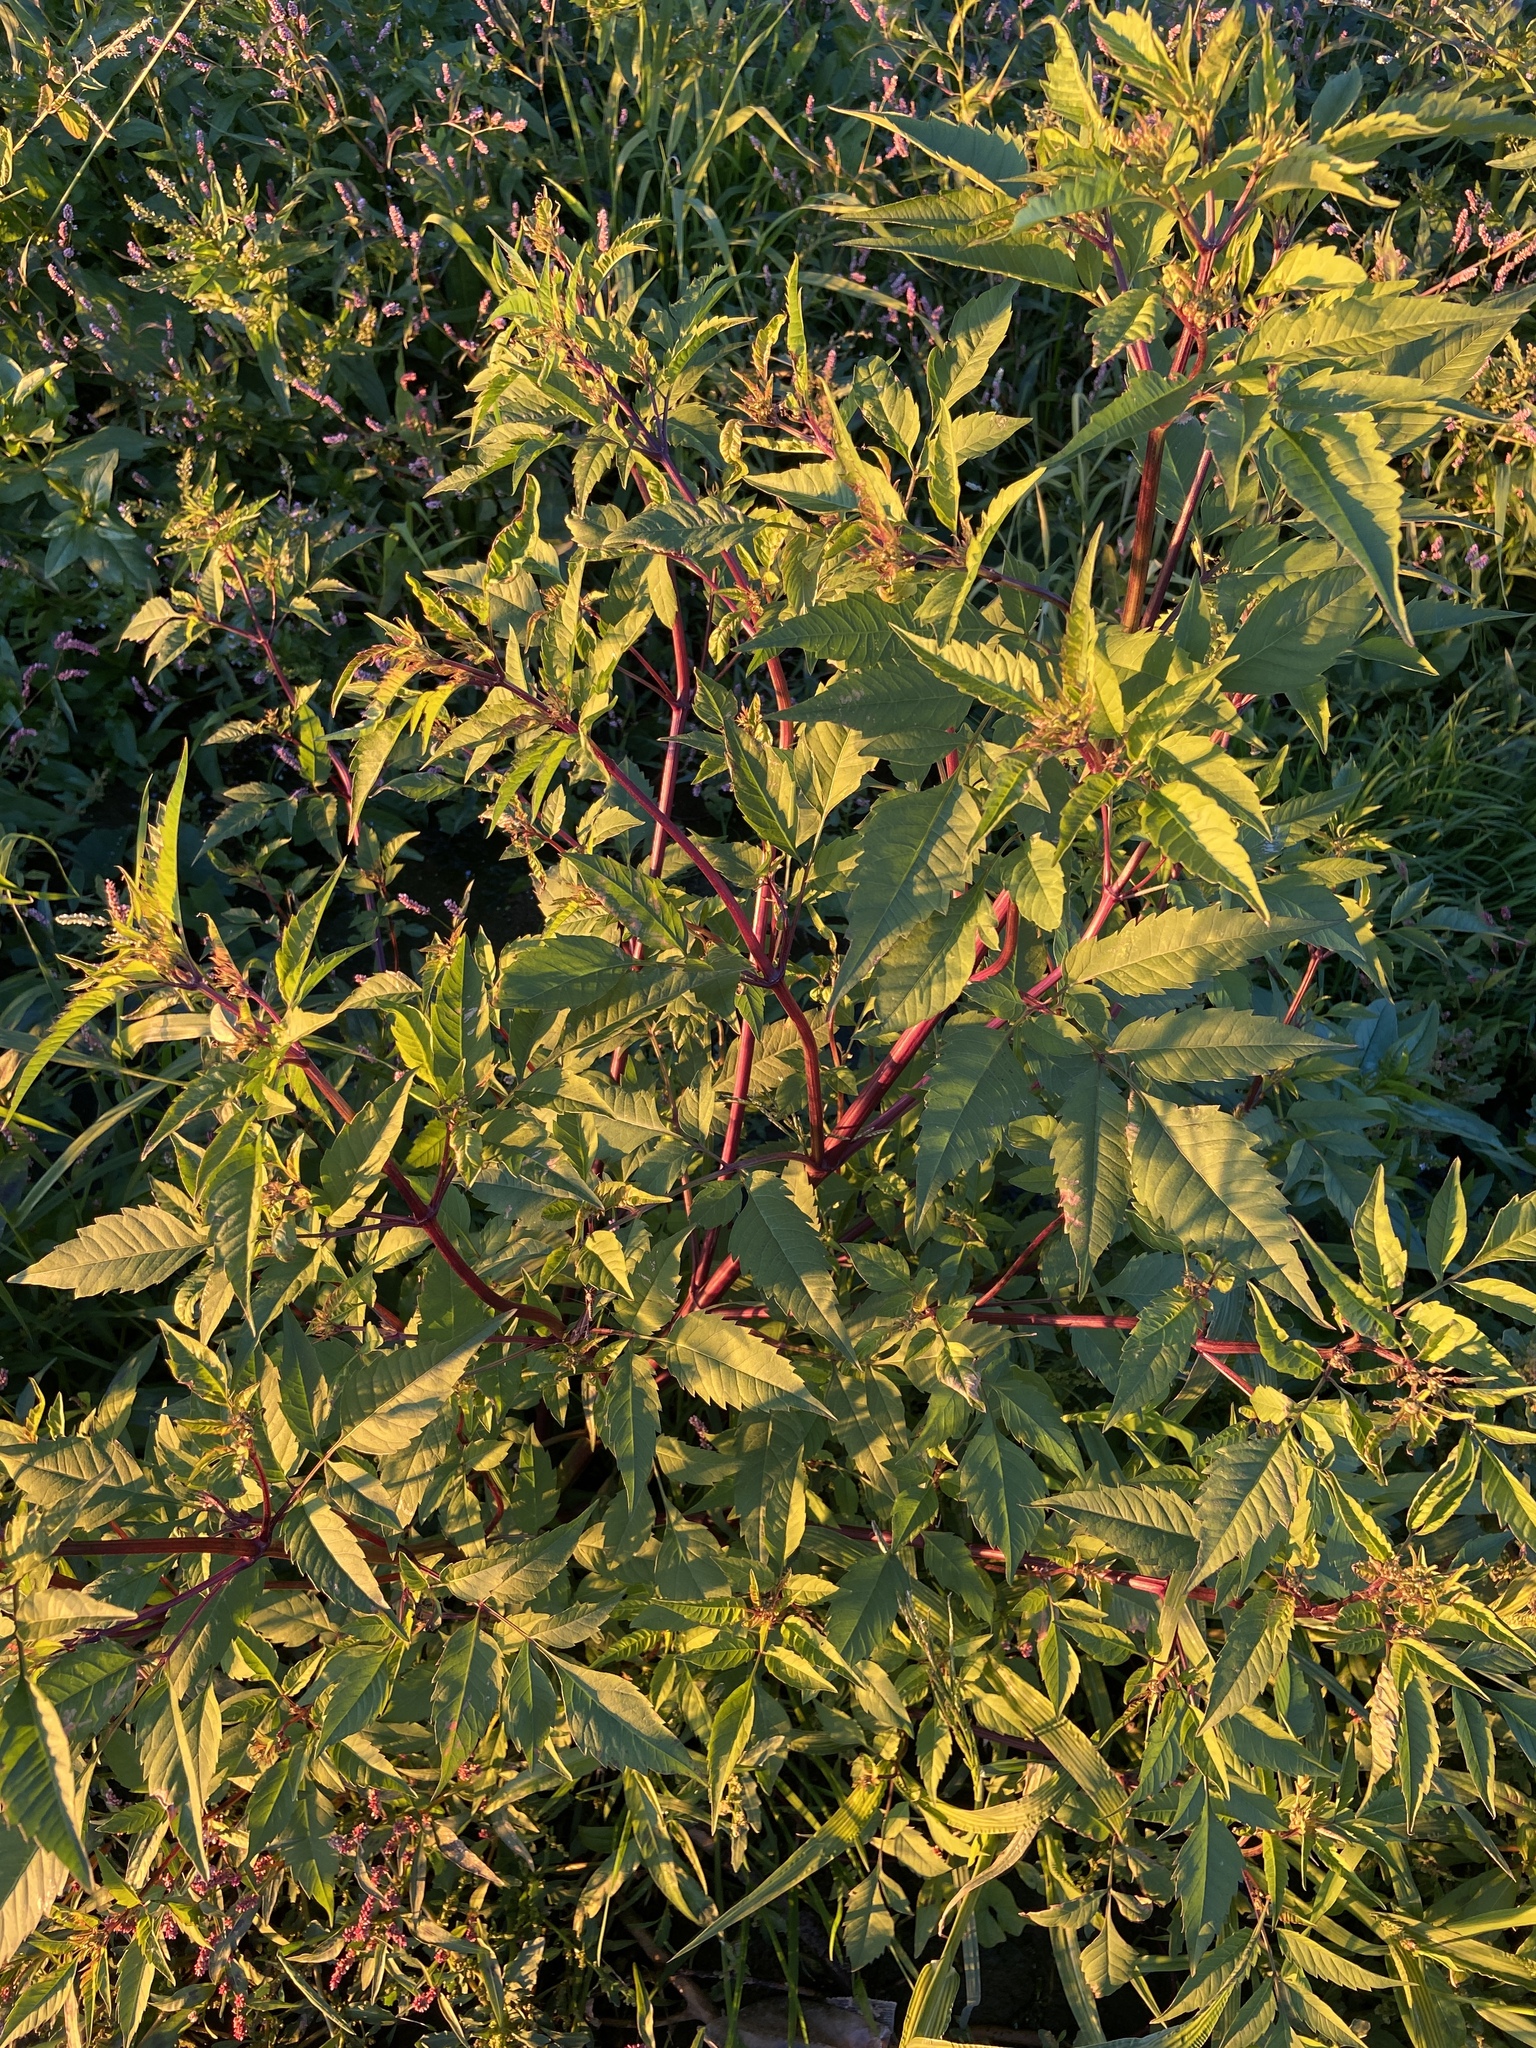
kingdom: Plantae
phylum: Tracheophyta
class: Magnoliopsida
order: Asterales
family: Asteraceae
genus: Bidens
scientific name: Bidens frondosa
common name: Beggarticks
